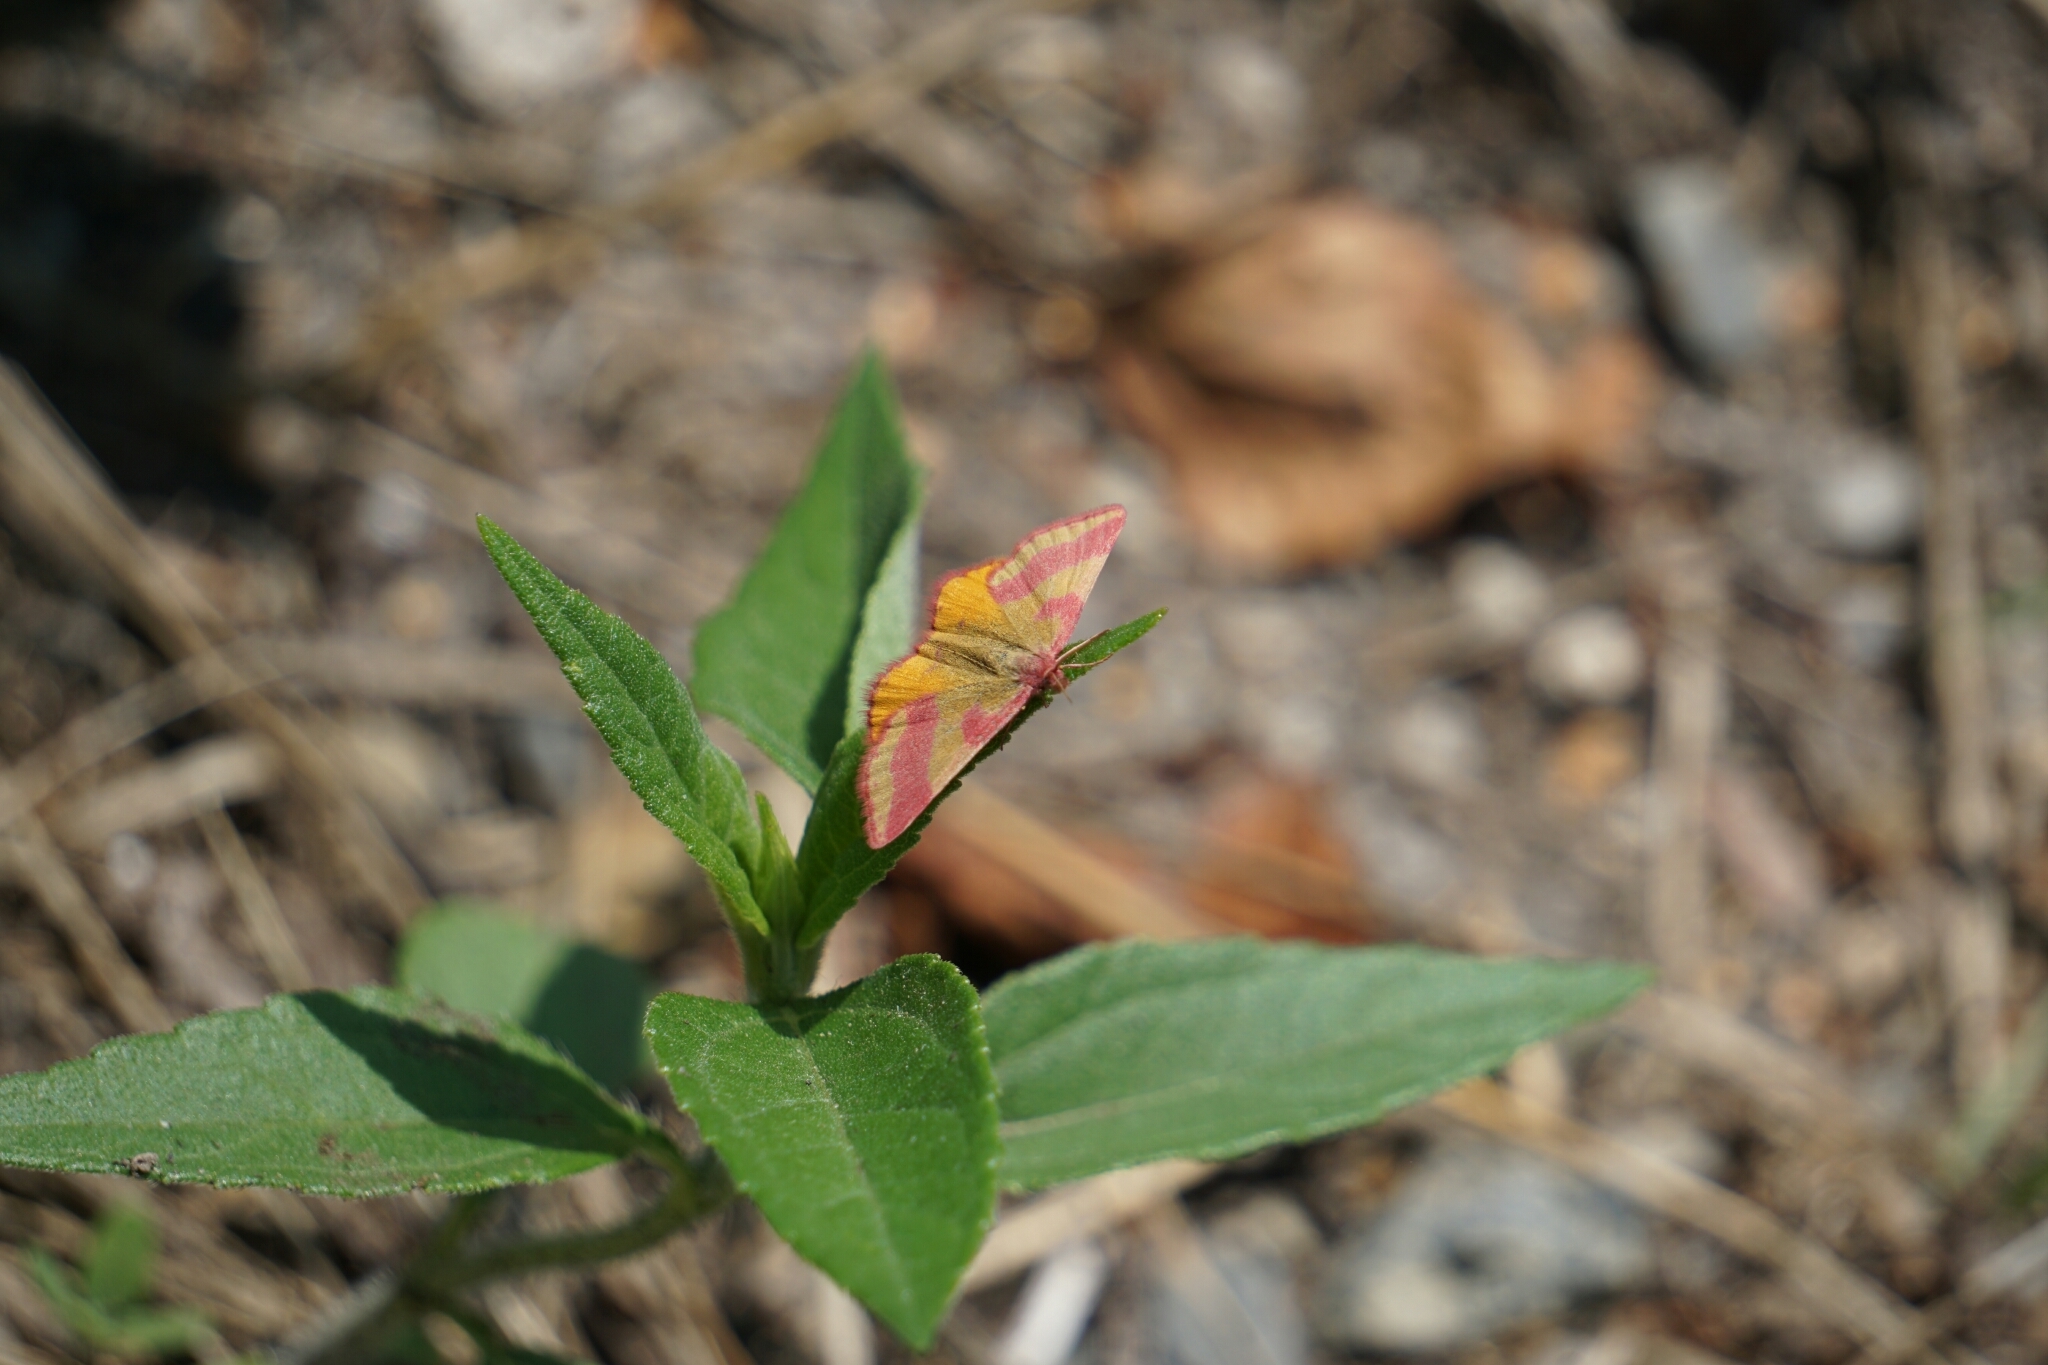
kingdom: Animalia
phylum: Arthropoda
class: Insecta
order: Lepidoptera
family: Geometridae
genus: Lythria
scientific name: Lythria cruentaria
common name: Purple-barred yellow
